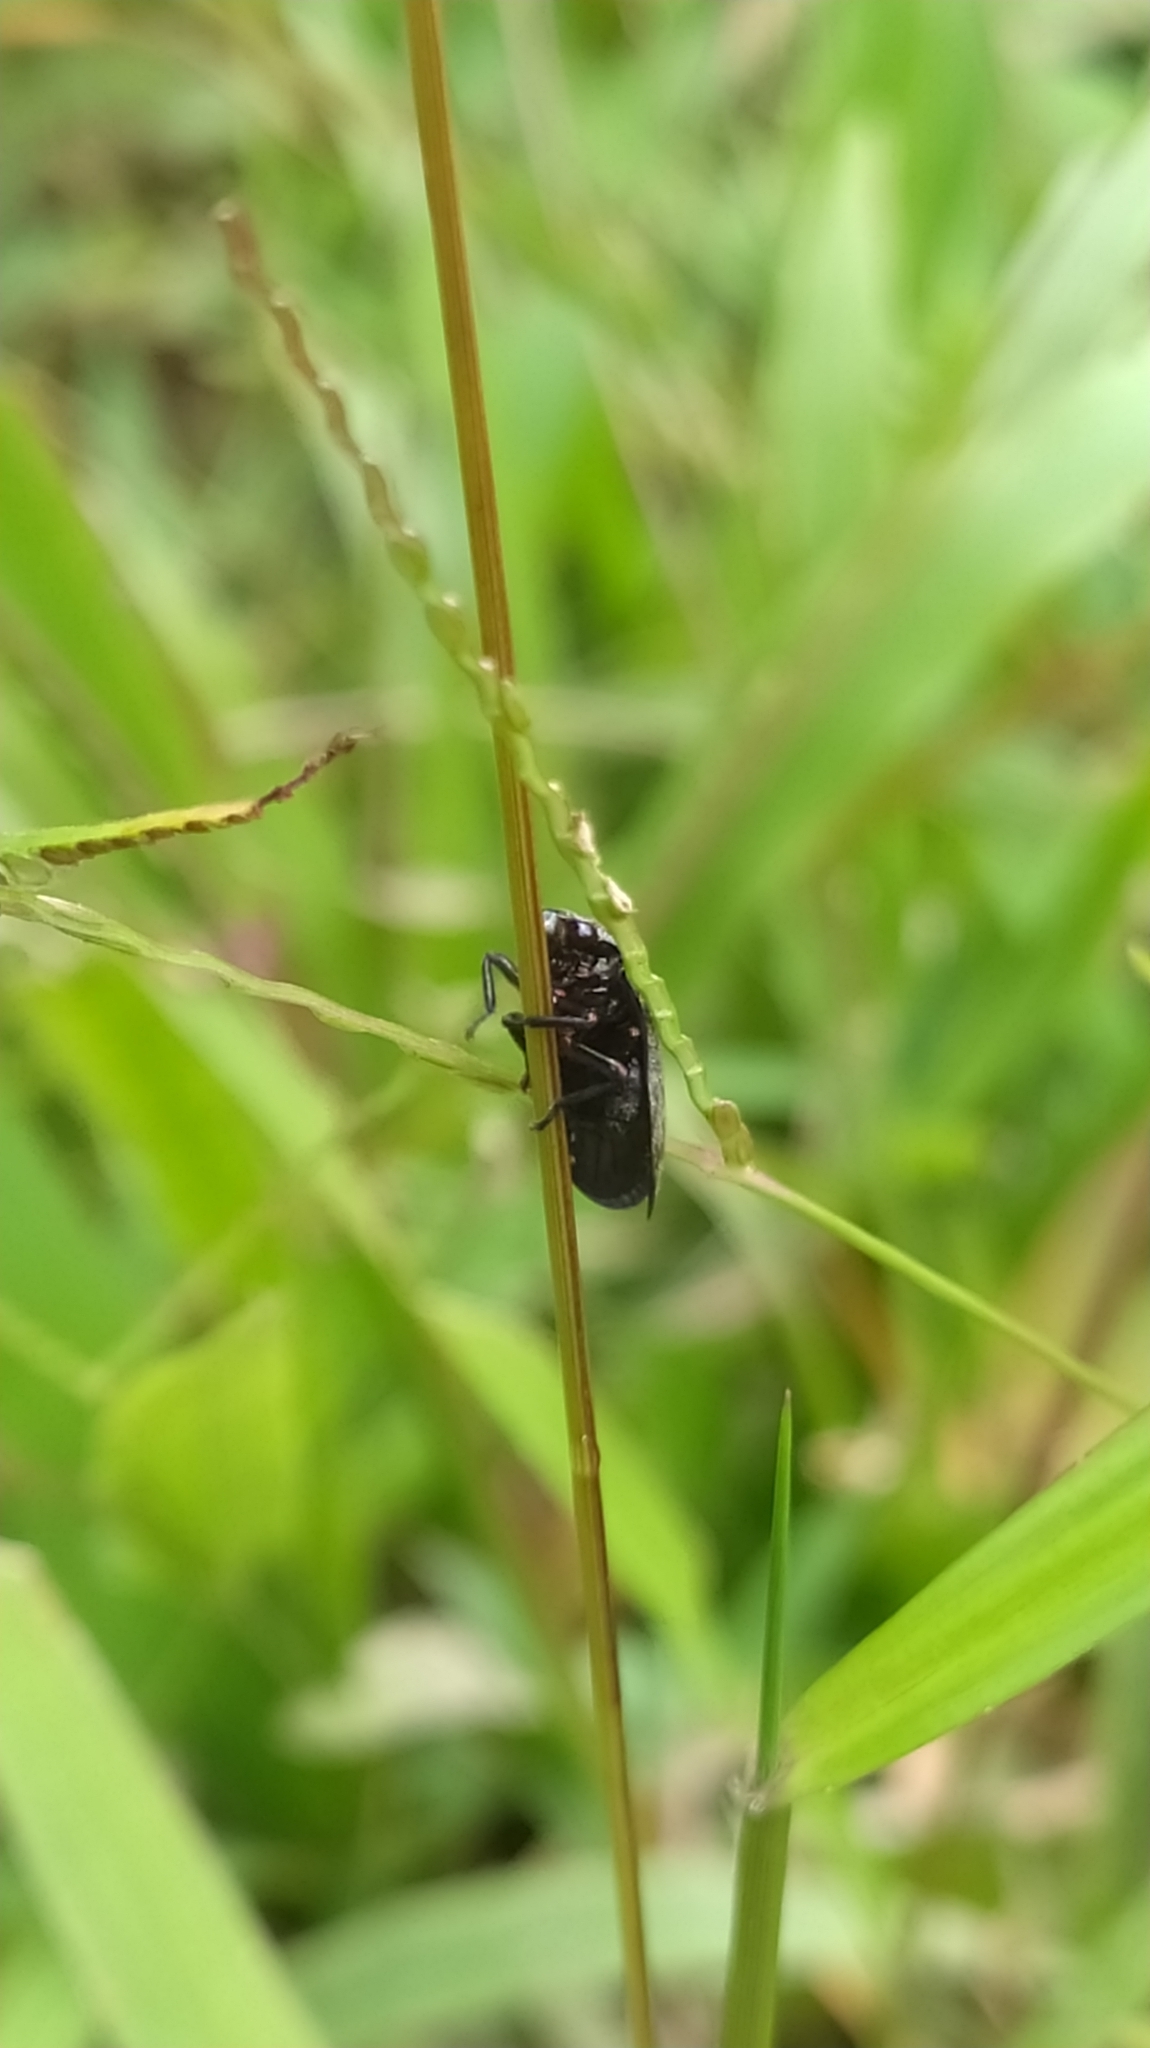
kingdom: Animalia
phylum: Arthropoda
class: Insecta
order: Hemiptera
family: Cercopidae
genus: Zulia
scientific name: Zulia pubescens
